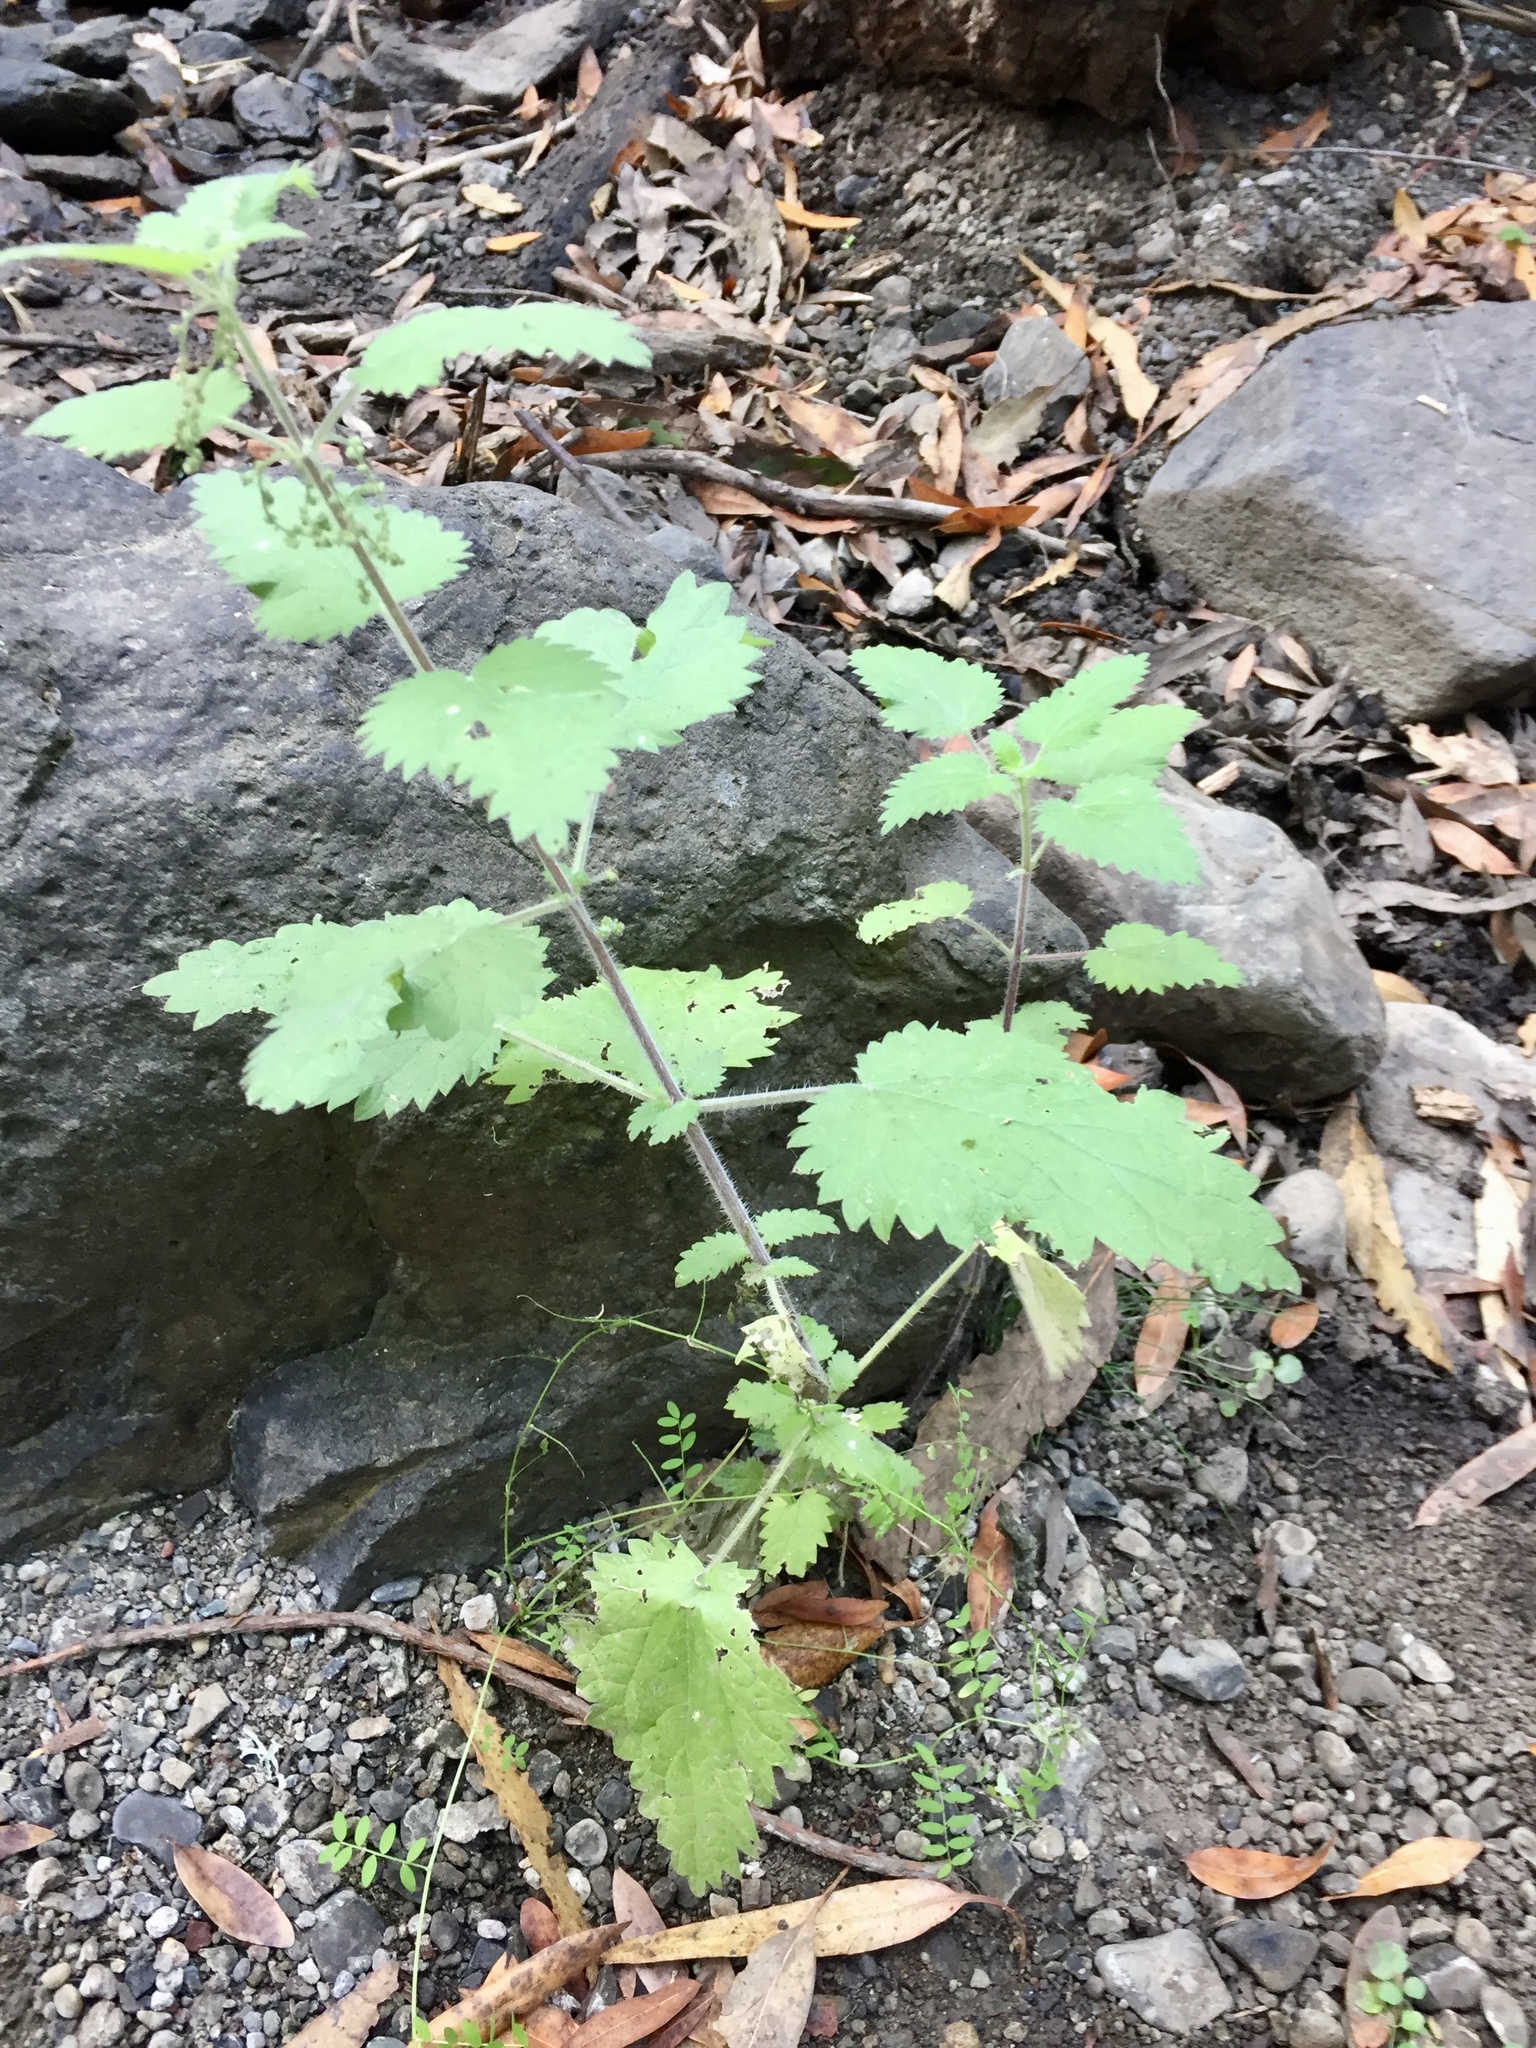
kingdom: Plantae
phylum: Tracheophyta
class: Magnoliopsida
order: Rosales
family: Urticaceae
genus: Urtica
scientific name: Urtica dioica
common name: Common nettle
